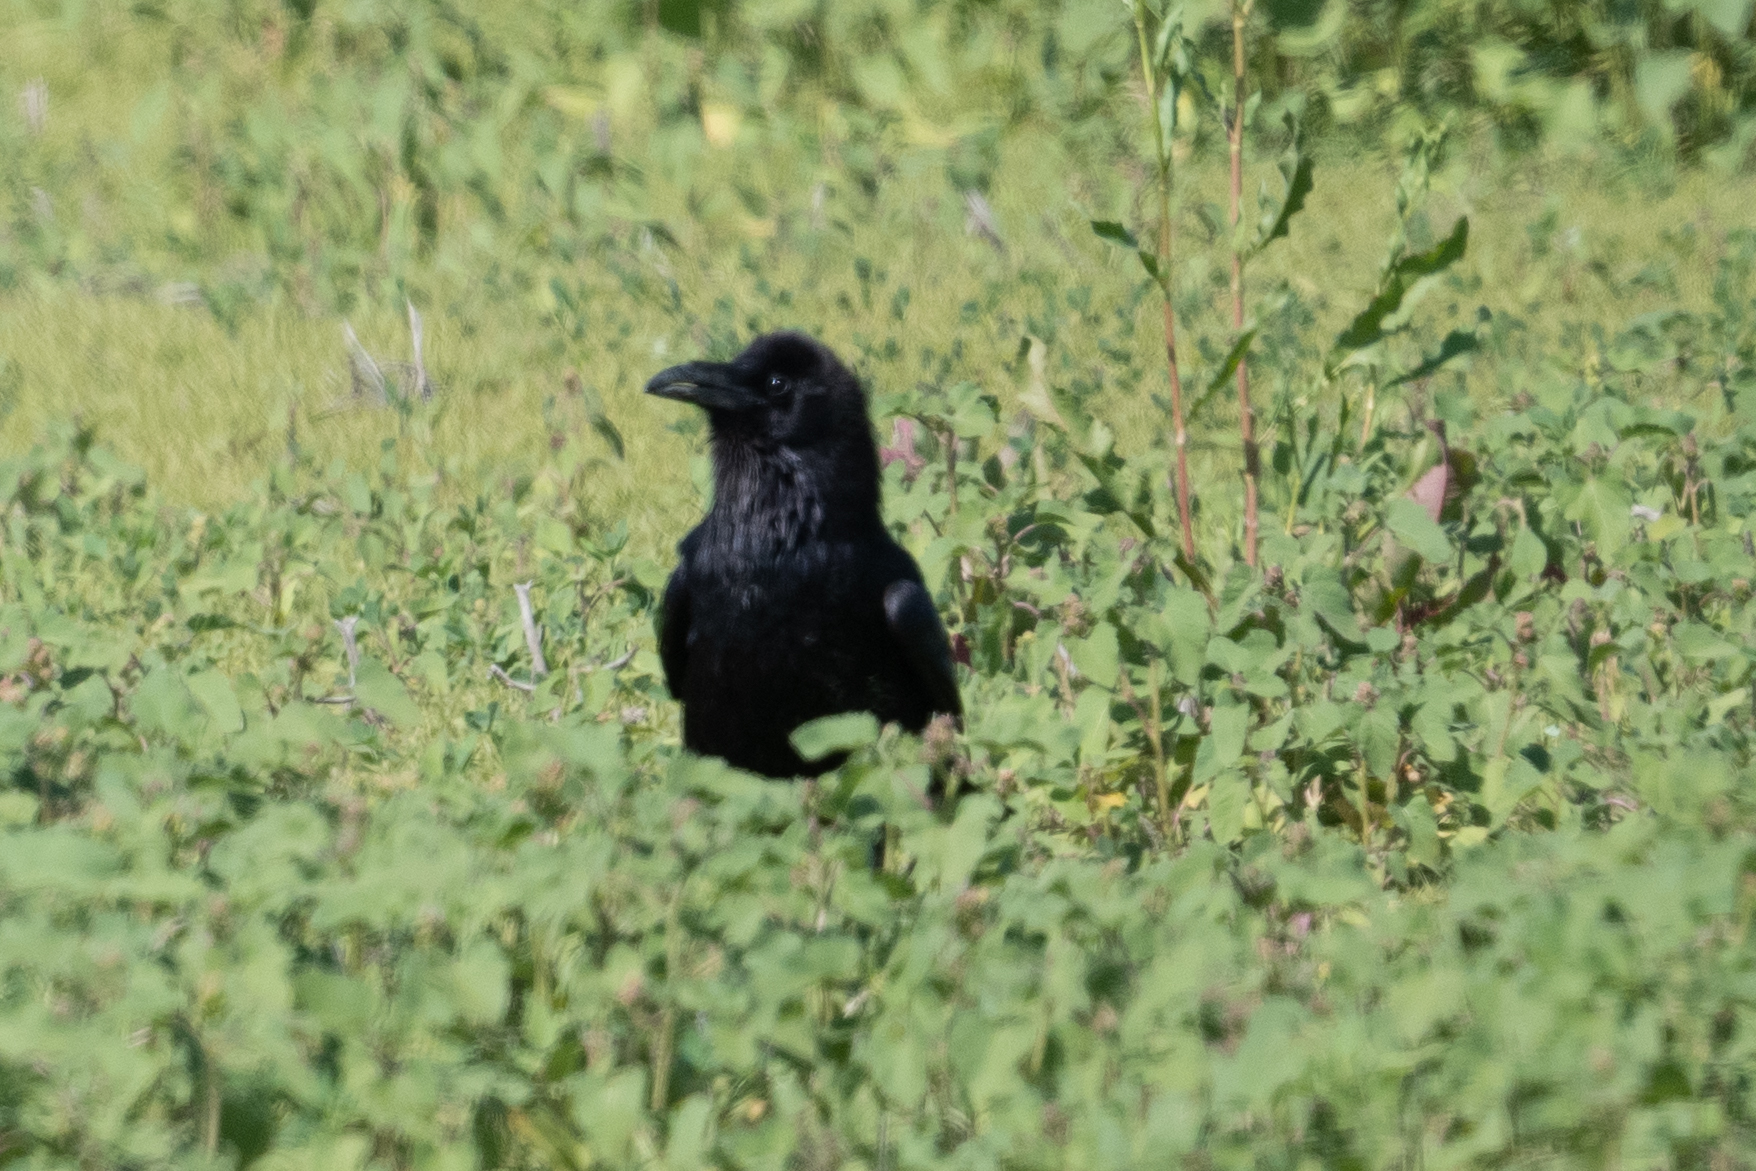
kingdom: Animalia
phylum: Chordata
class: Aves
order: Passeriformes
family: Corvidae
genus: Corvus
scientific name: Corvus corax
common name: Common raven
